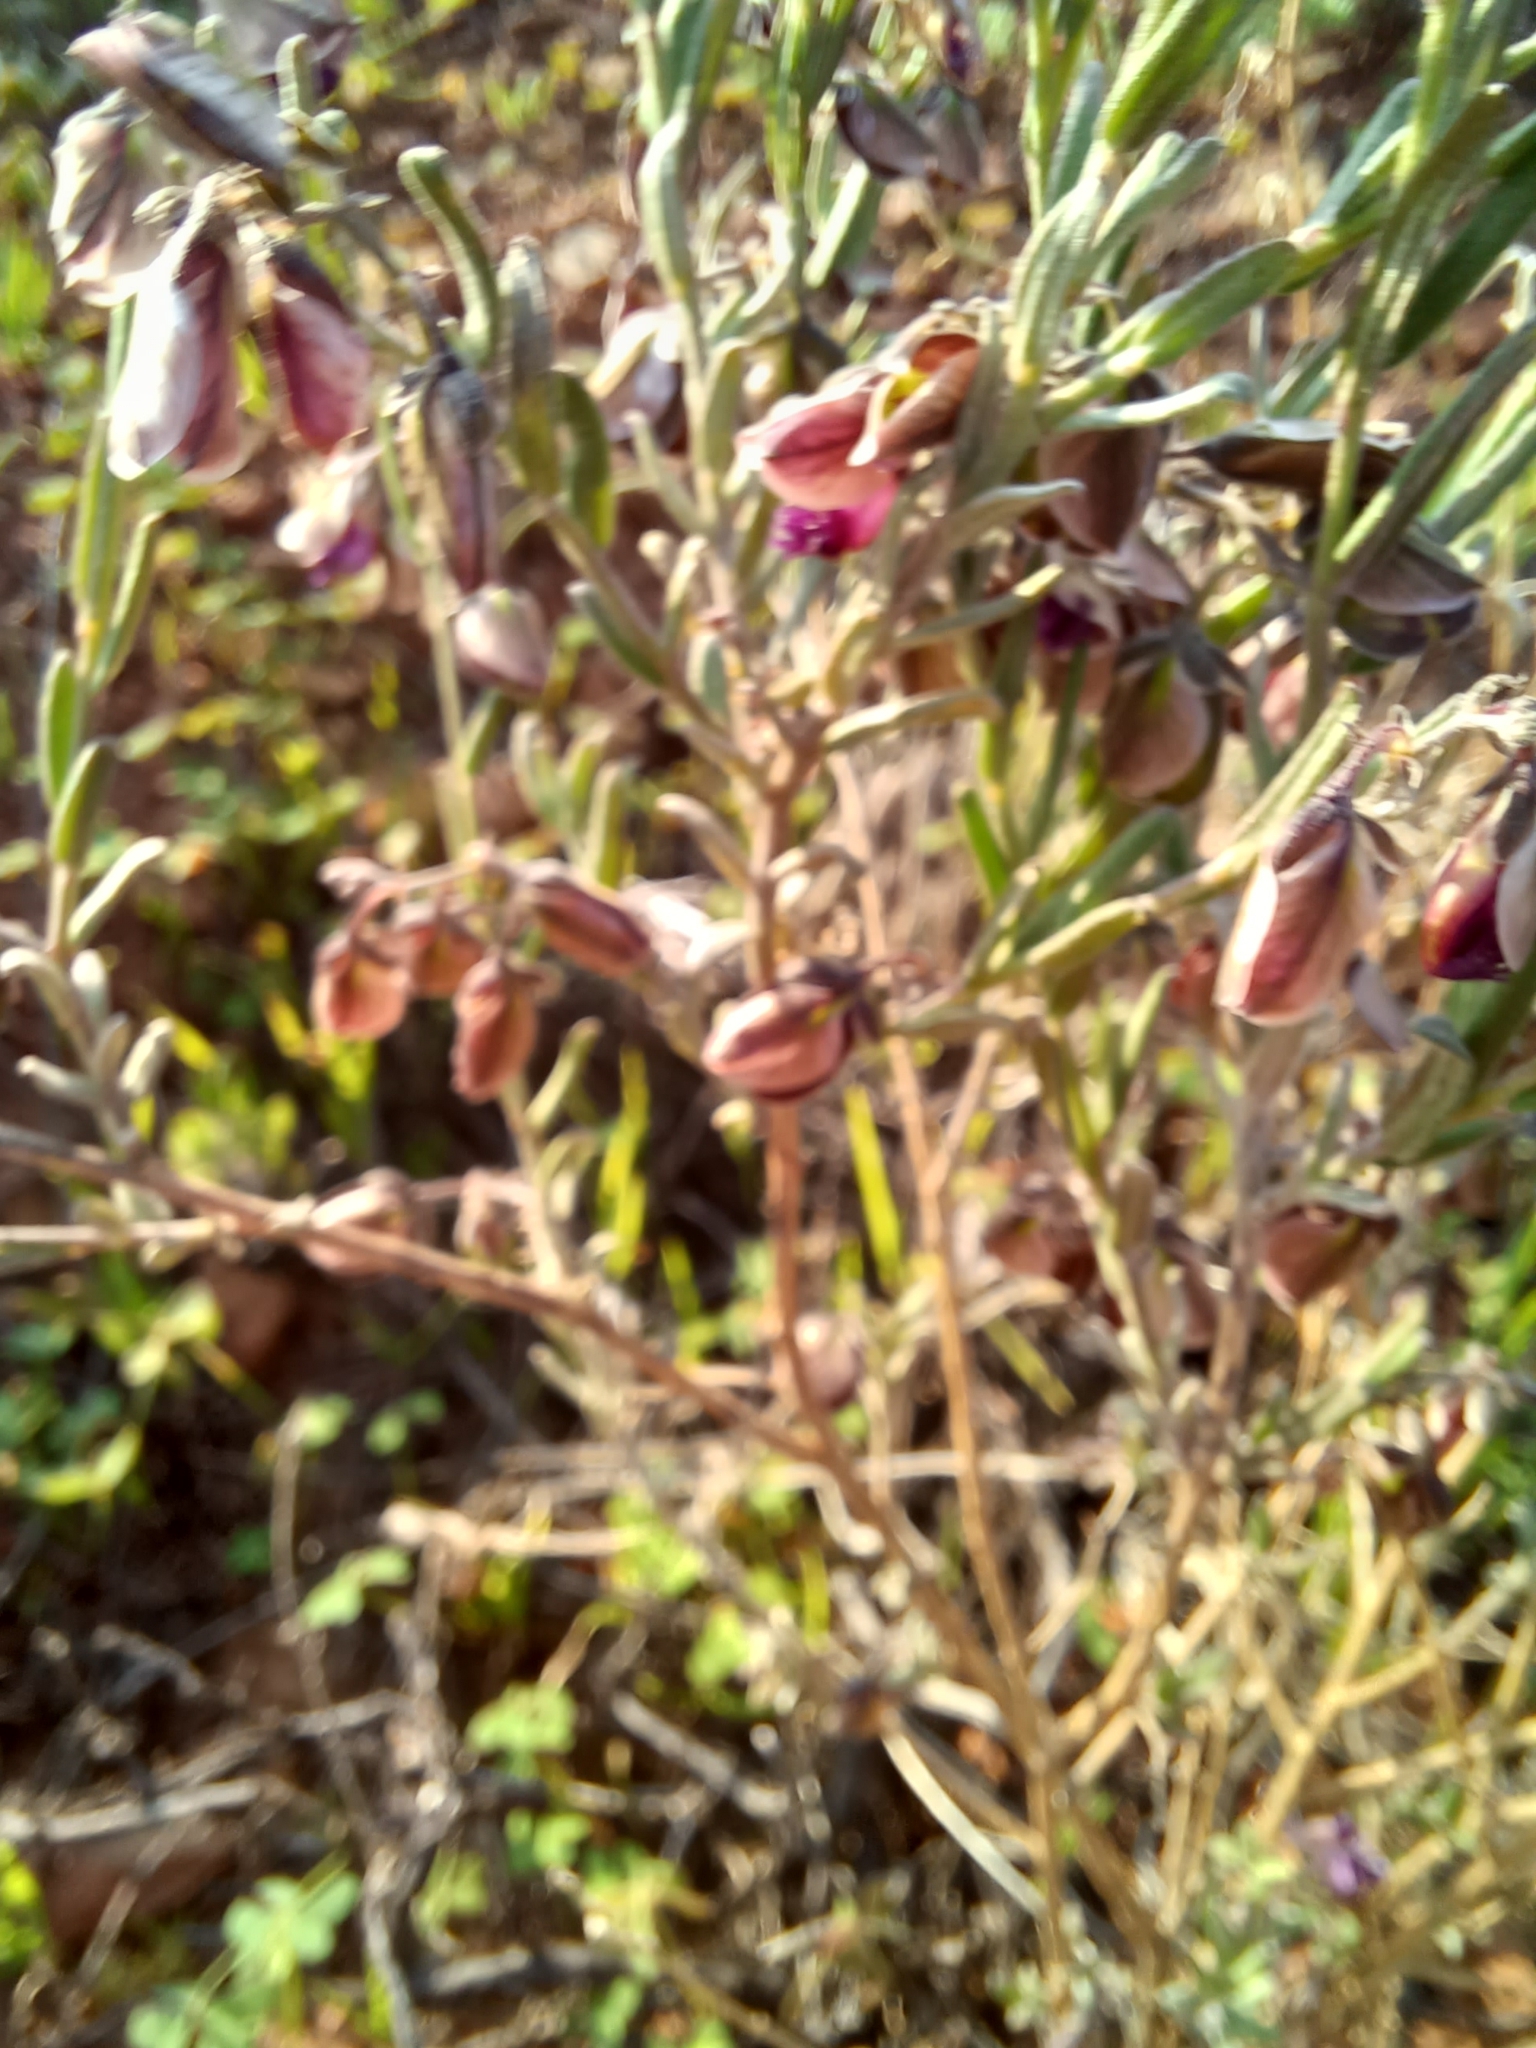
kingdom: Plantae
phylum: Tracheophyta
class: Magnoliopsida
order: Fabales
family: Polygalaceae
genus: Polygala
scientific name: Polygala scabra
